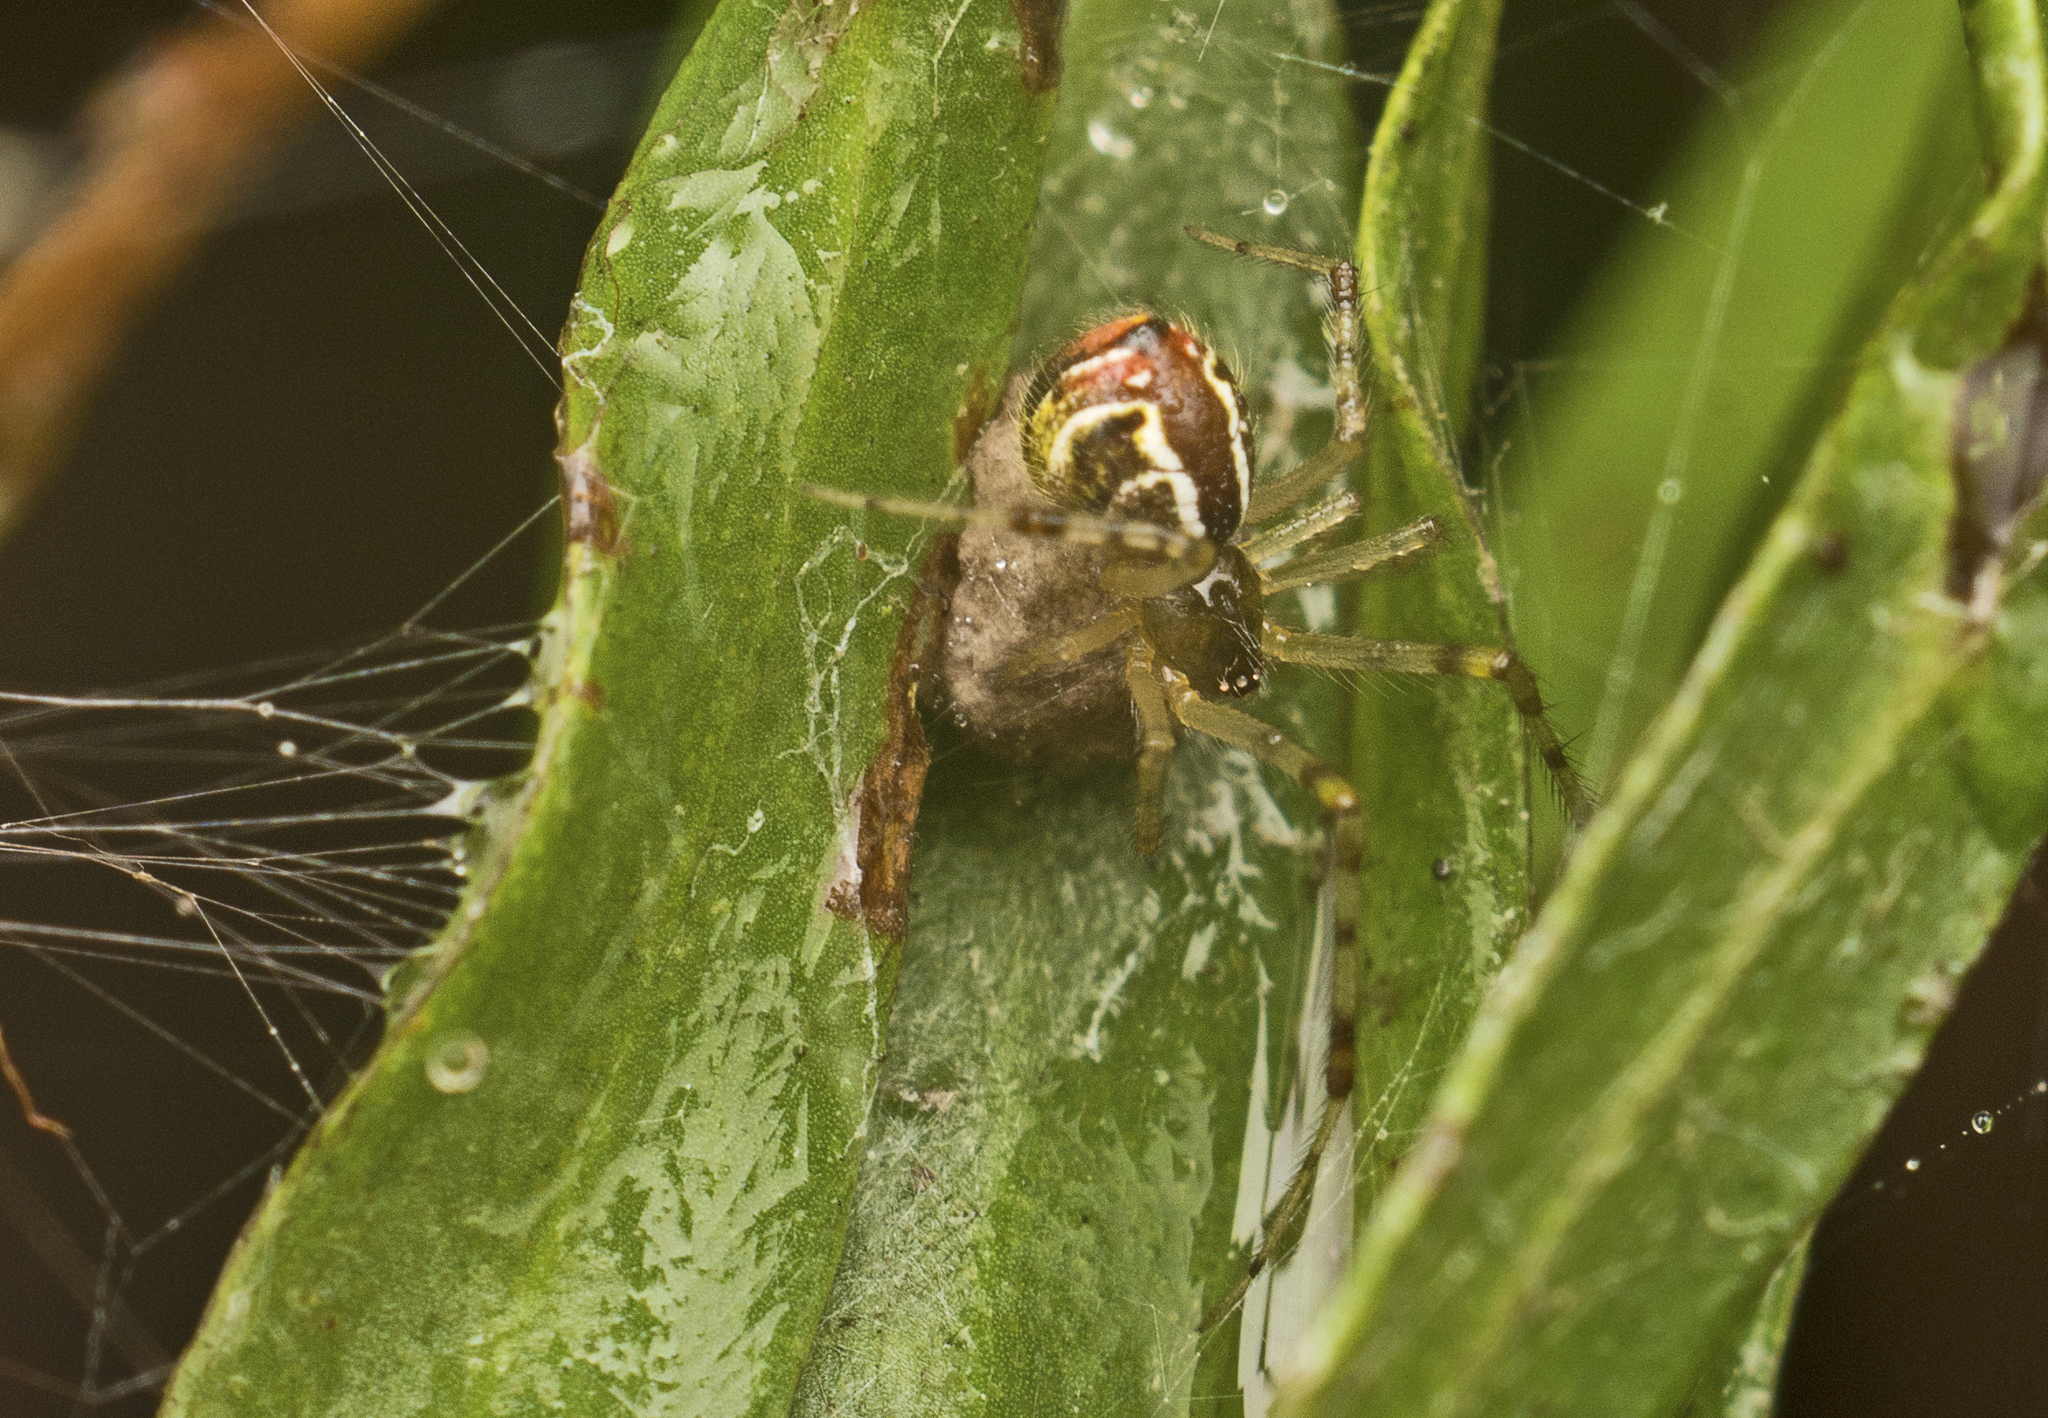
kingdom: Animalia
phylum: Arthropoda
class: Arachnida
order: Araneae
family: Theridiidae
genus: Theridion
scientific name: Theridion pyramidale
